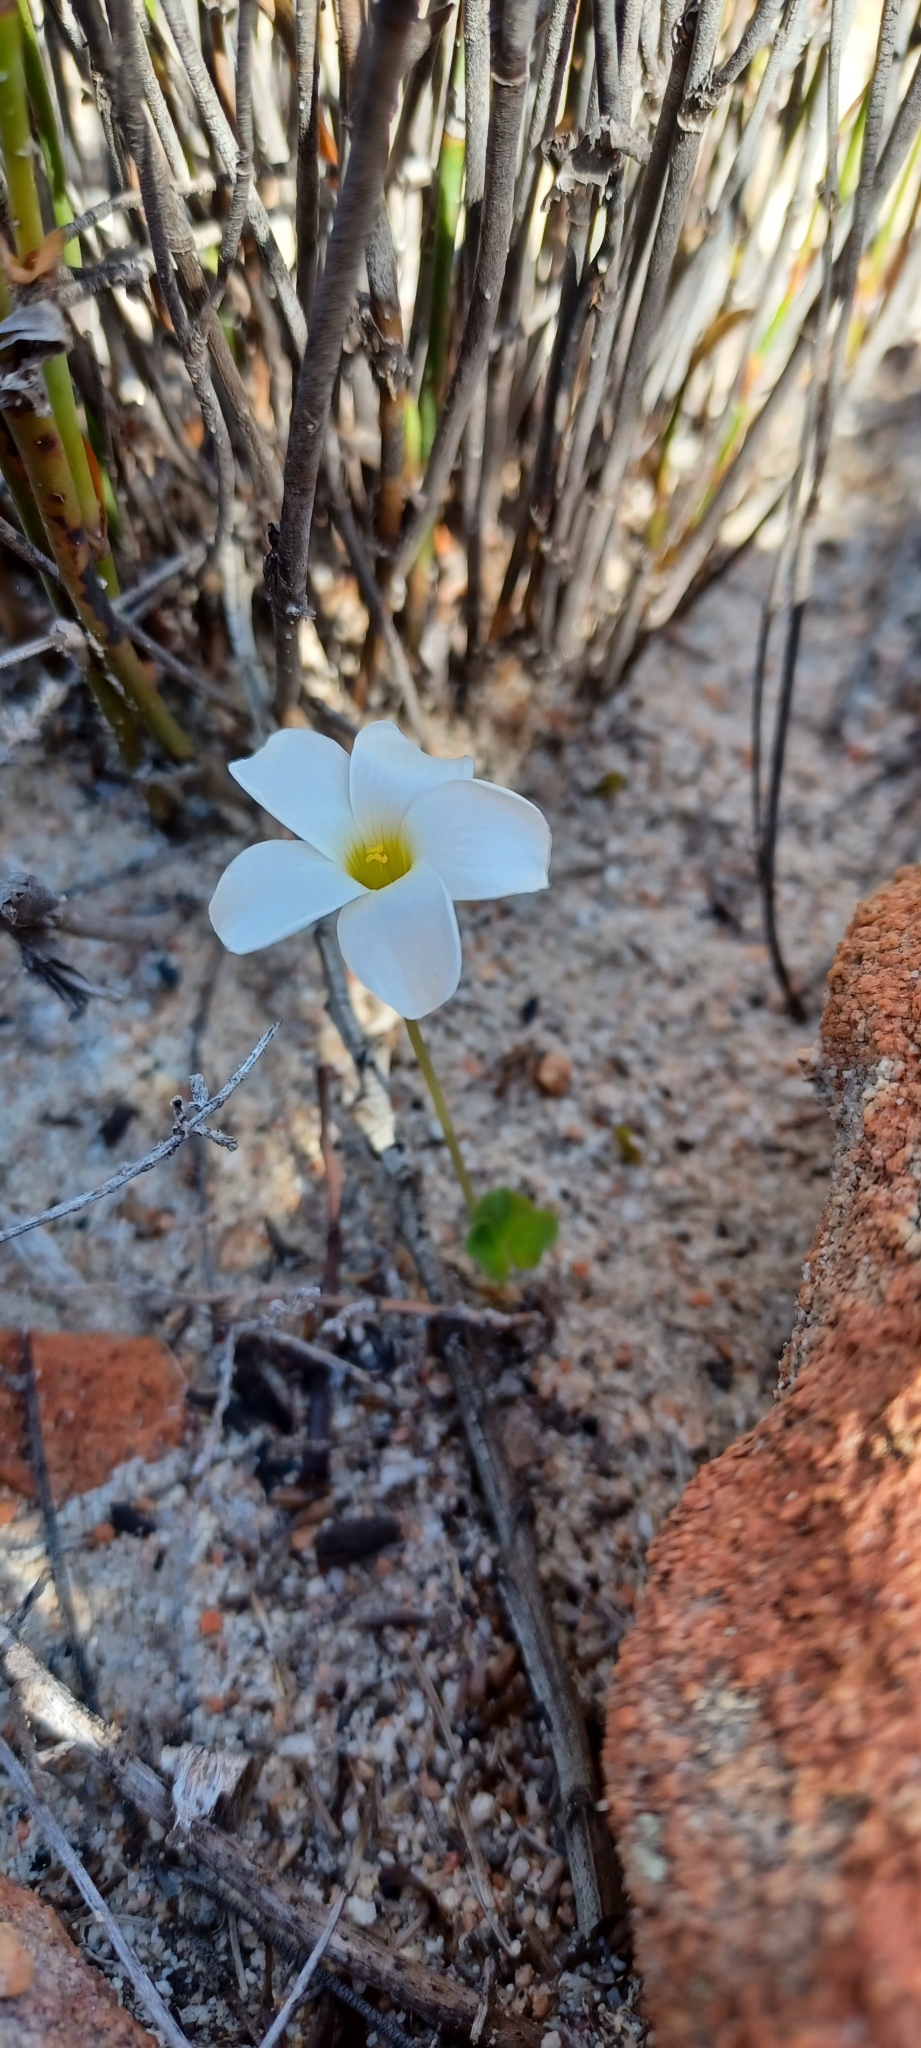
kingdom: Plantae
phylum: Tracheophyta
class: Magnoliopsida
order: Oxalidales
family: Oxalidaceae
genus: Oxalis
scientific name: Oxalis depressa
